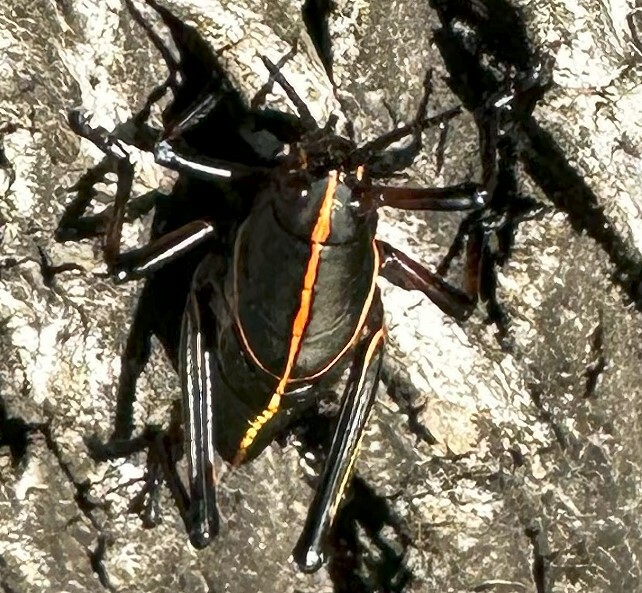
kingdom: Animalia
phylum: Arthropoda
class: Insecta
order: Orthoptera
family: Romaleidae
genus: Romalea
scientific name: Romalea microptera
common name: Eastern lubber grasshopper
